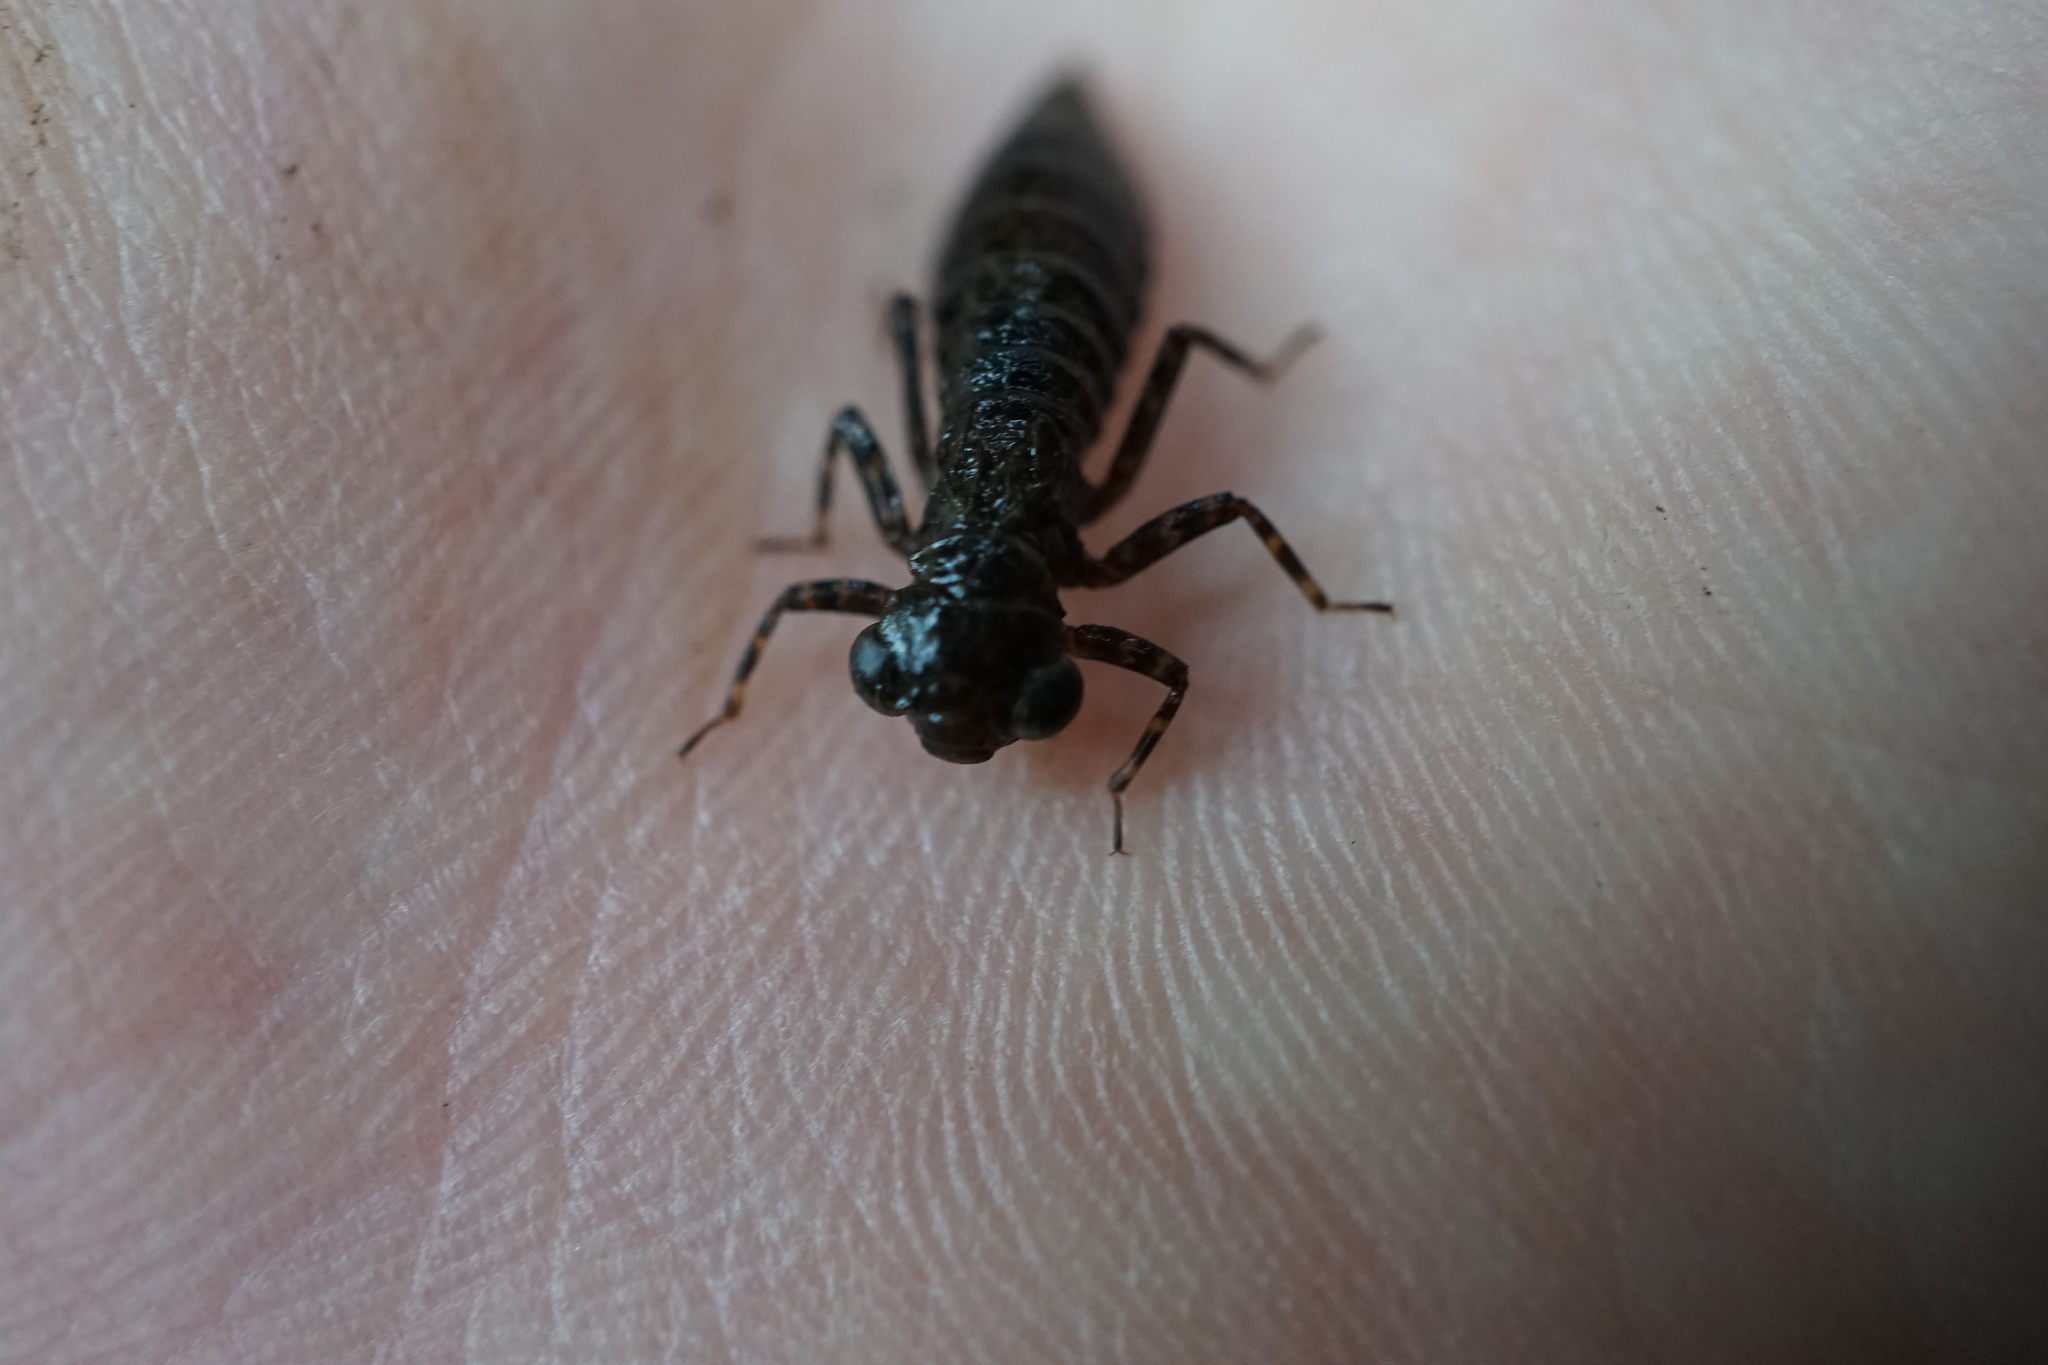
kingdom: Animalia
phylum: Arthropoda
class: Insecta
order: Odonata
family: Aeshnidae
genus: Aeschnophlebia
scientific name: Aeschnophlebia
